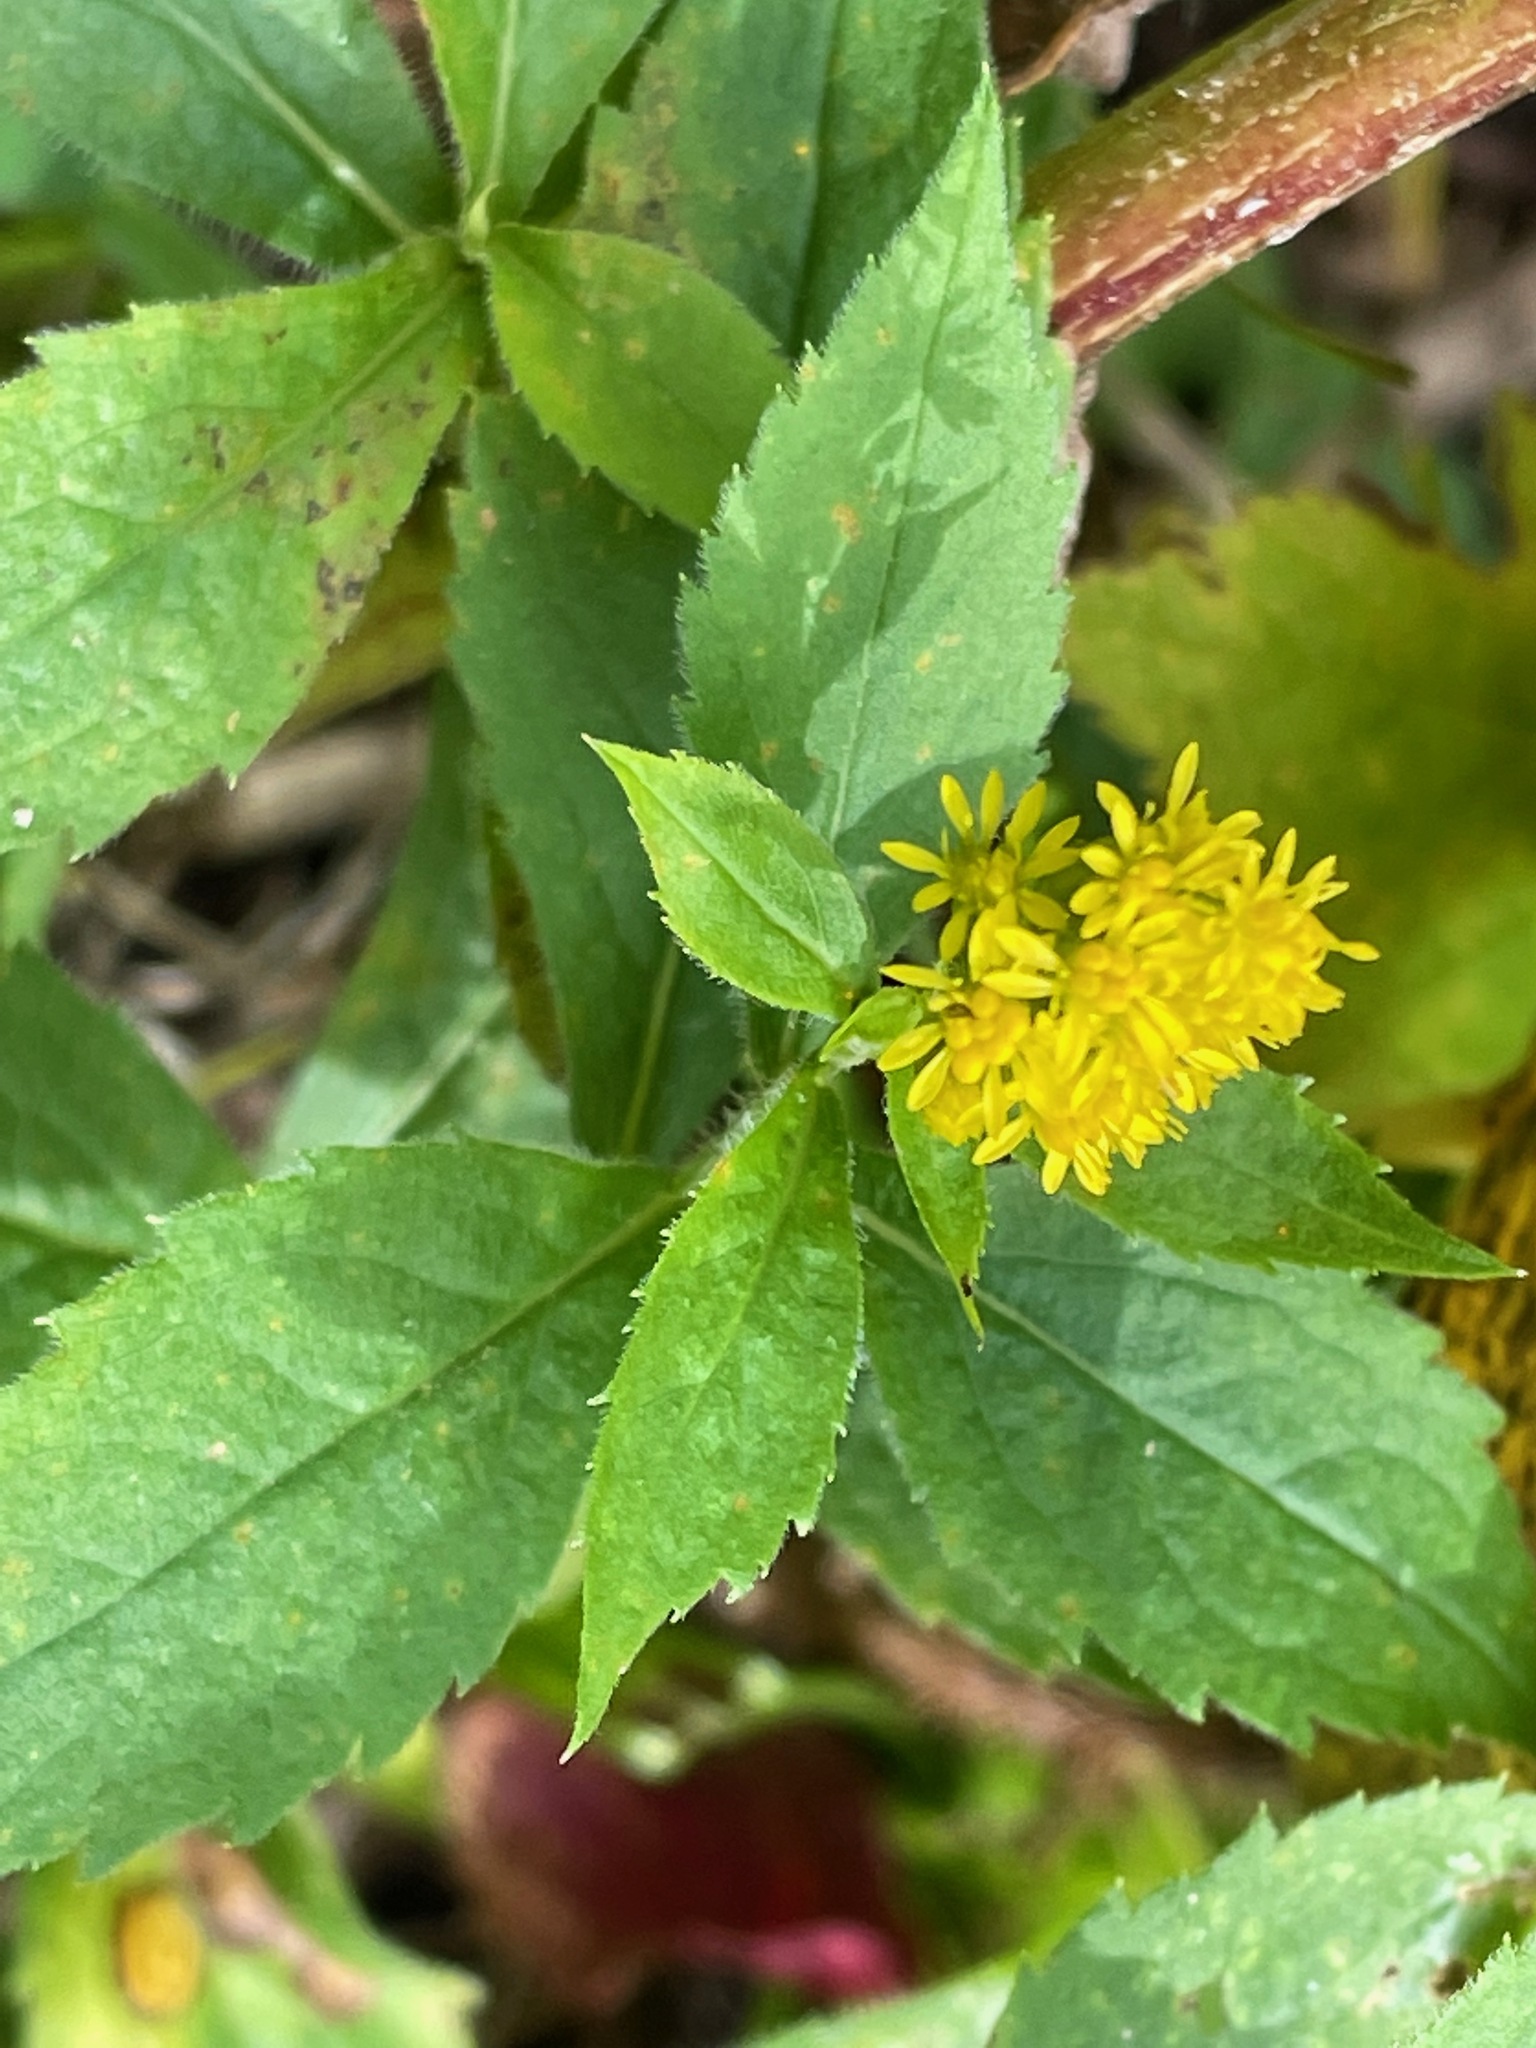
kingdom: Plantae
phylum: Tracheophyta
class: Magnoliopsida
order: Asterales
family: Asteraceae
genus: Solidago
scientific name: Solidago rugosa
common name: Rough-stemmed goldenrod
